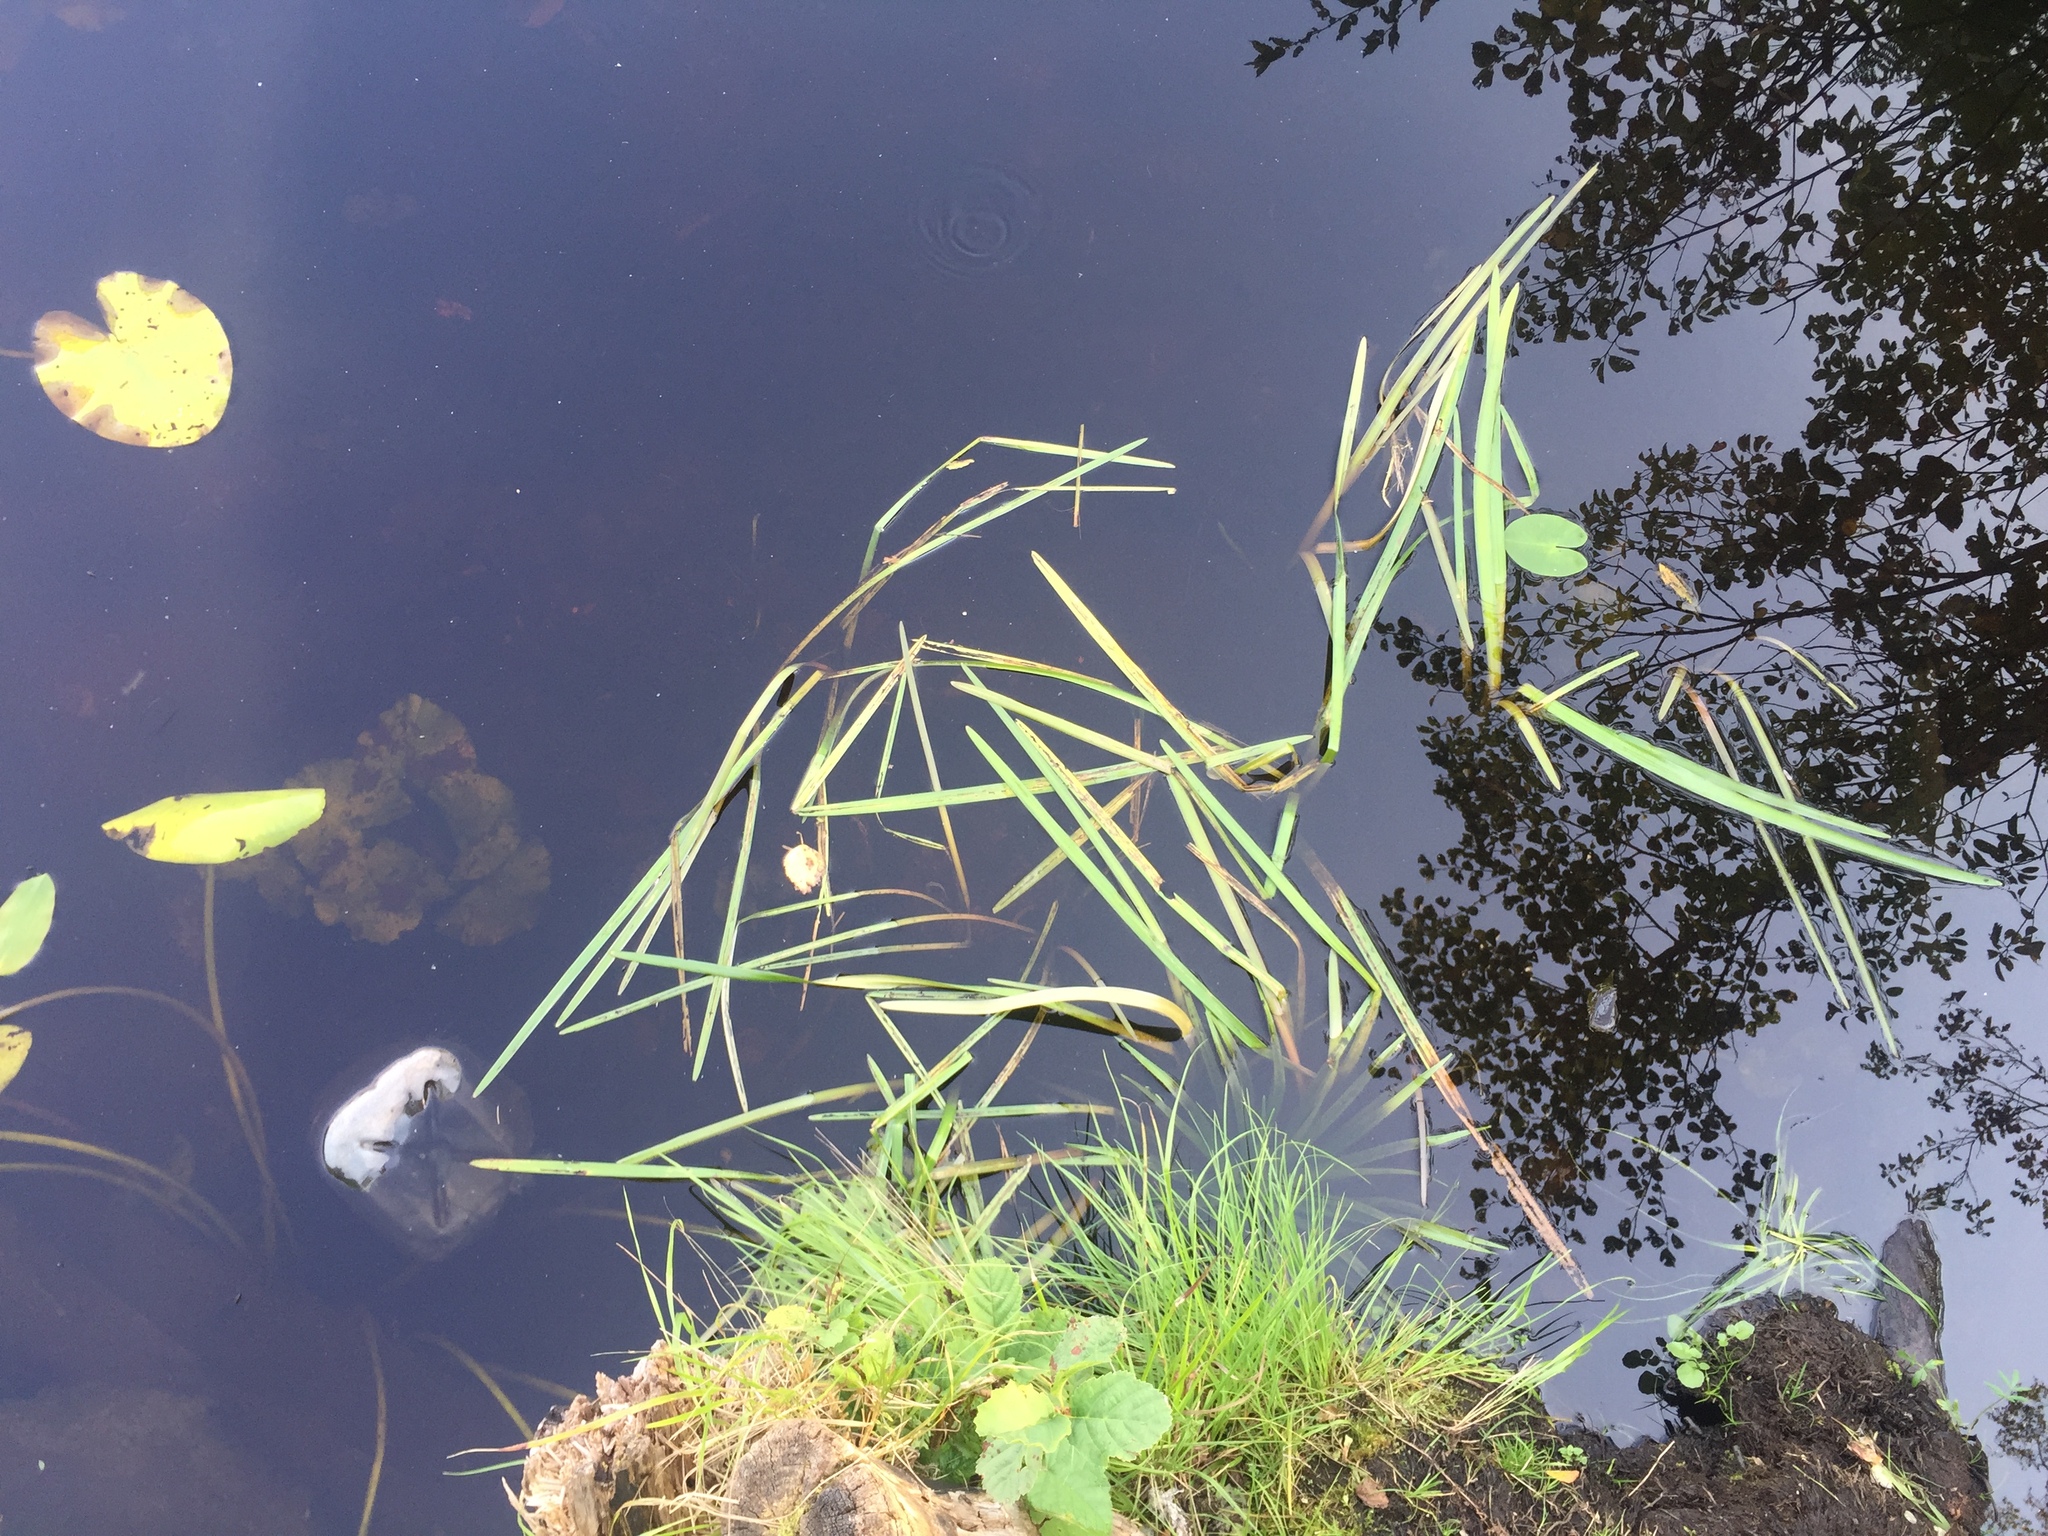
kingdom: Plantae
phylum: Tracheophyta
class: Liliopsida
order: Poales
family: Typhaceae
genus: Sparganium
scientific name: Sparganium emersum
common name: Unbranched bur-reed
